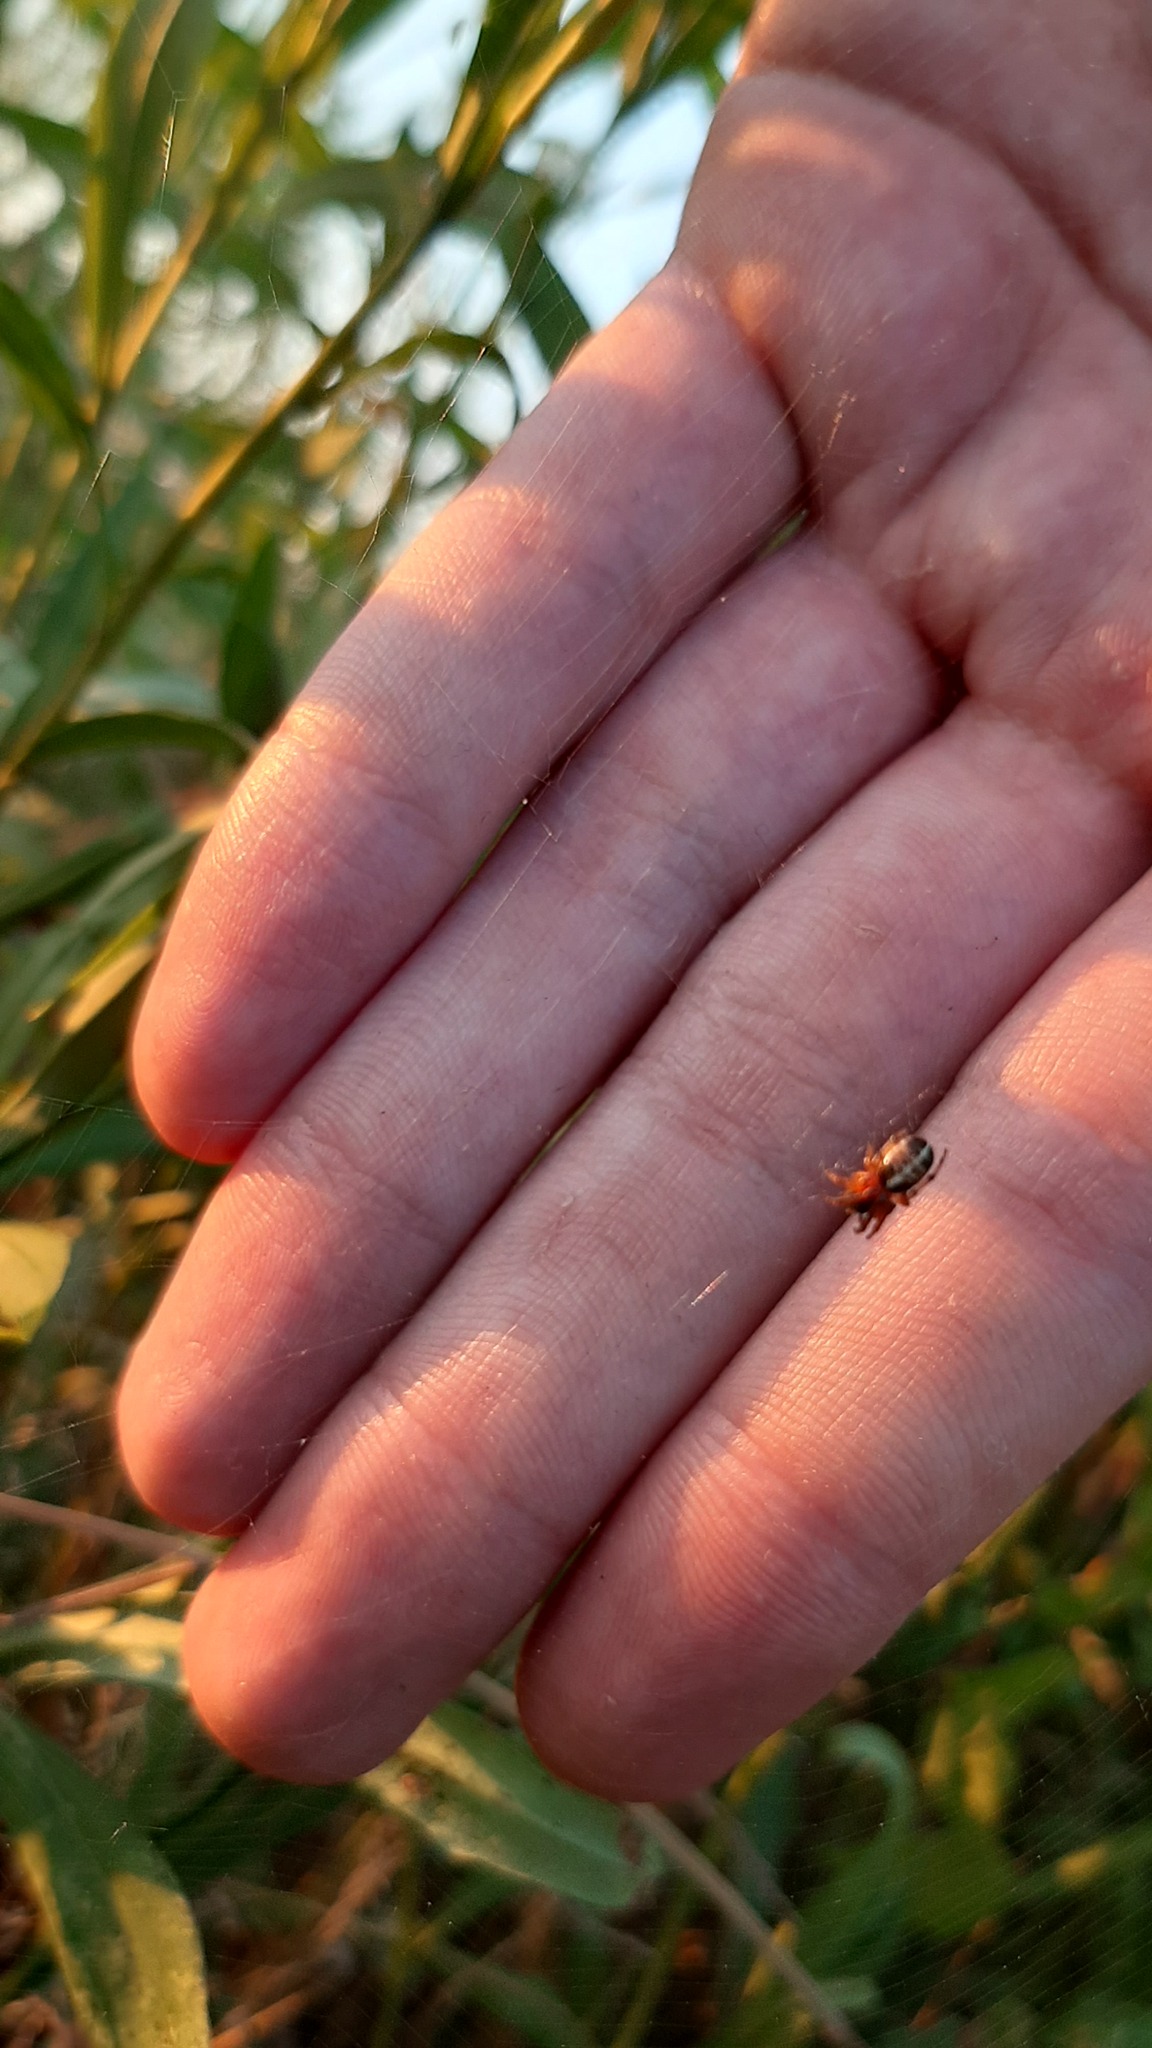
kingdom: Animalia
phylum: Arthropoda
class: Arachnida
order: Araneae
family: Araneidae
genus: Singa
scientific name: Singa hamata
